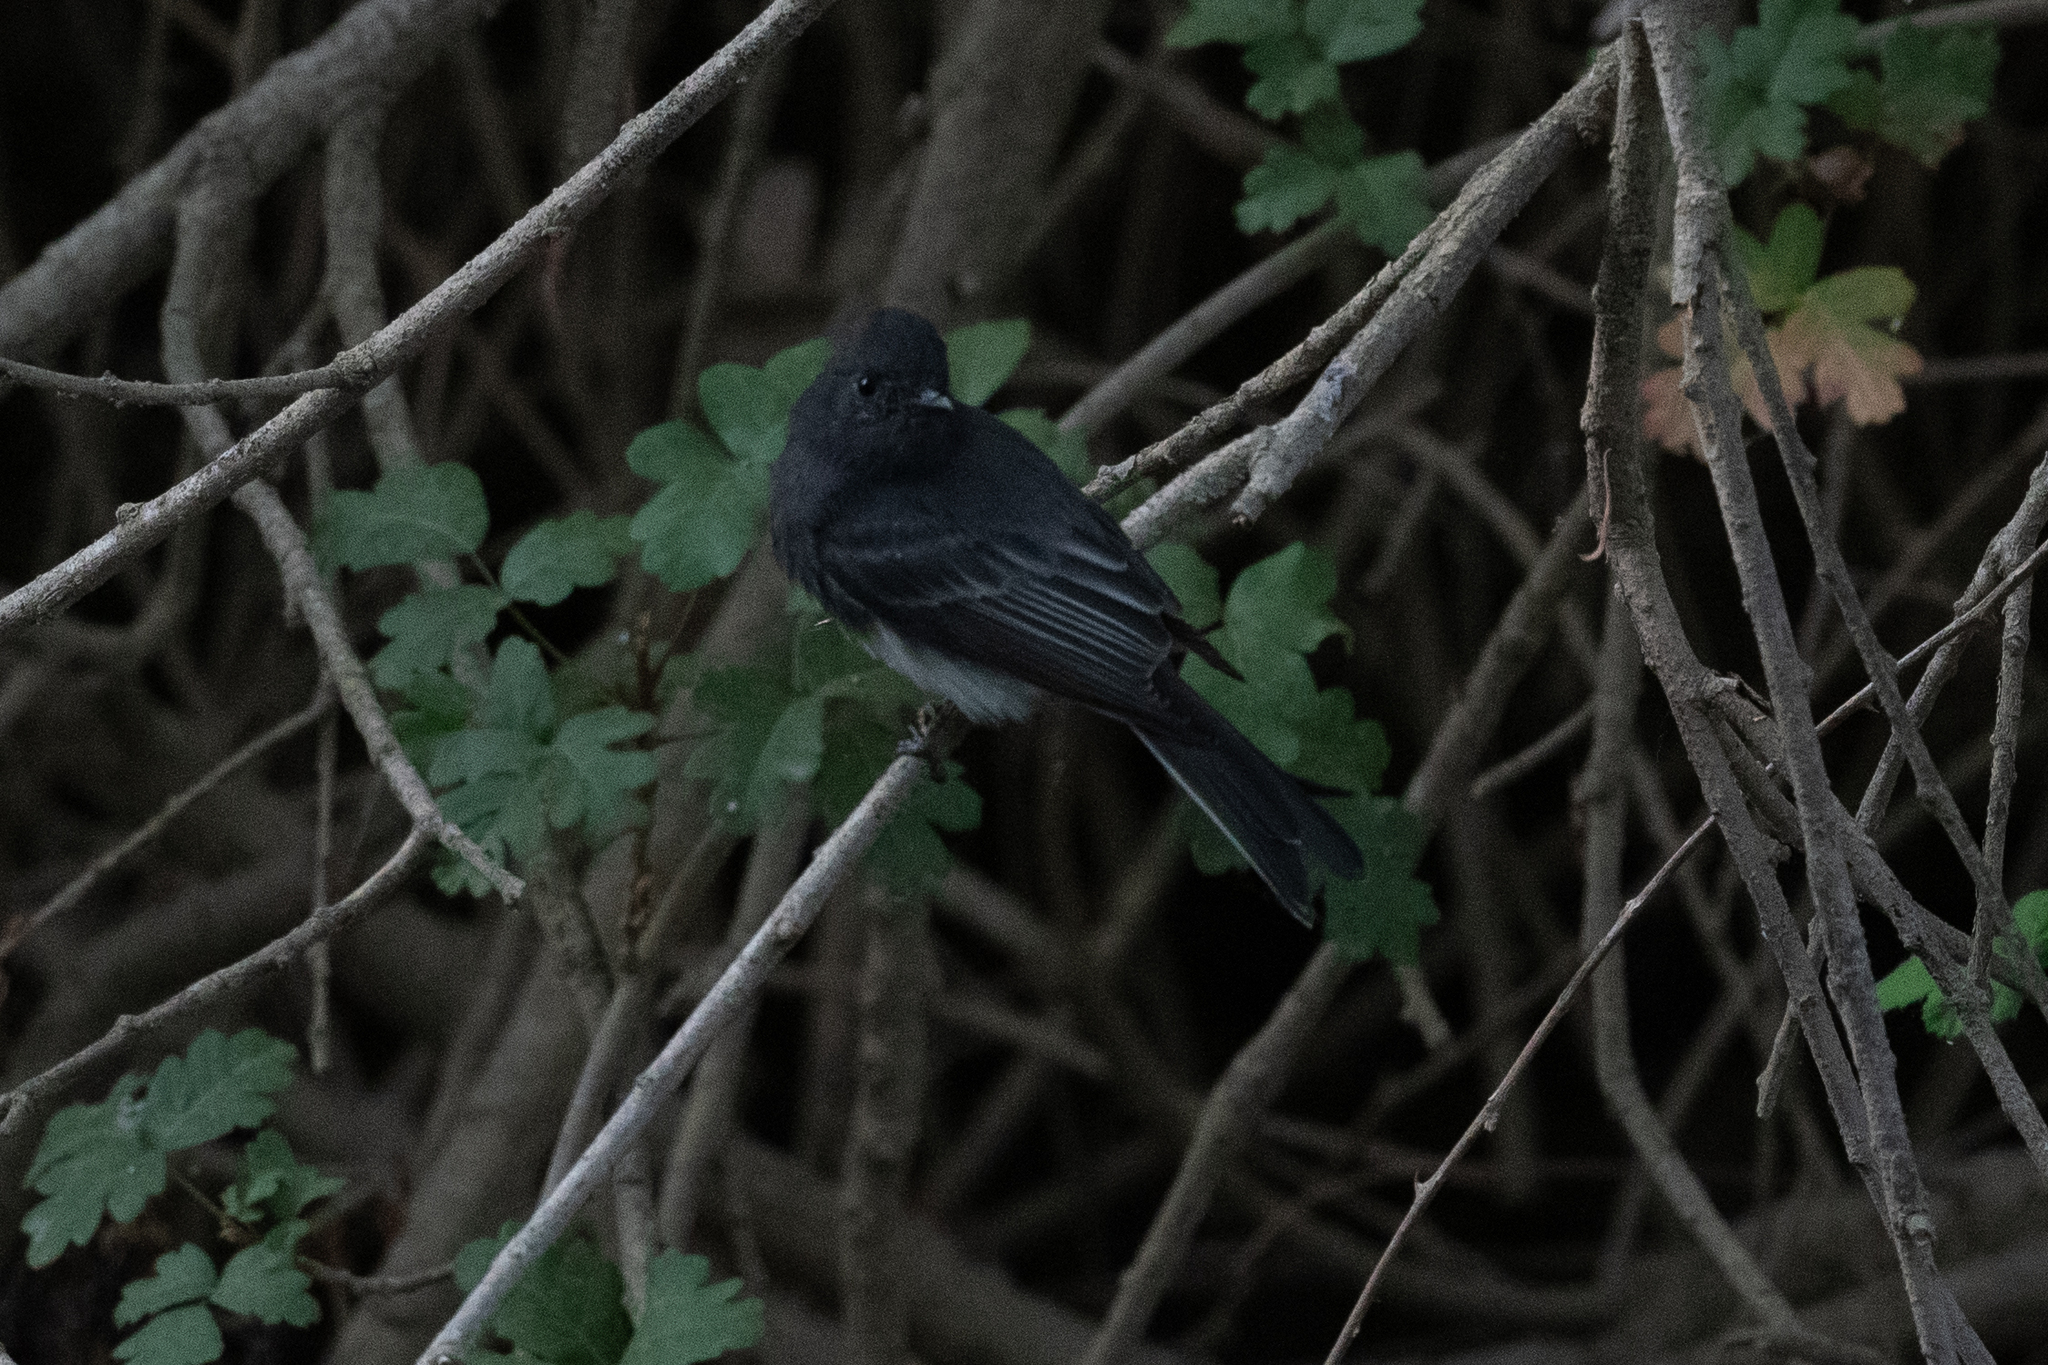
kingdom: Animalia
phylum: Chordata
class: Aves
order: Passeriformes
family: Tyrannidae
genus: Sayornis
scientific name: Sayornis nigricans
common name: Black phoebe
